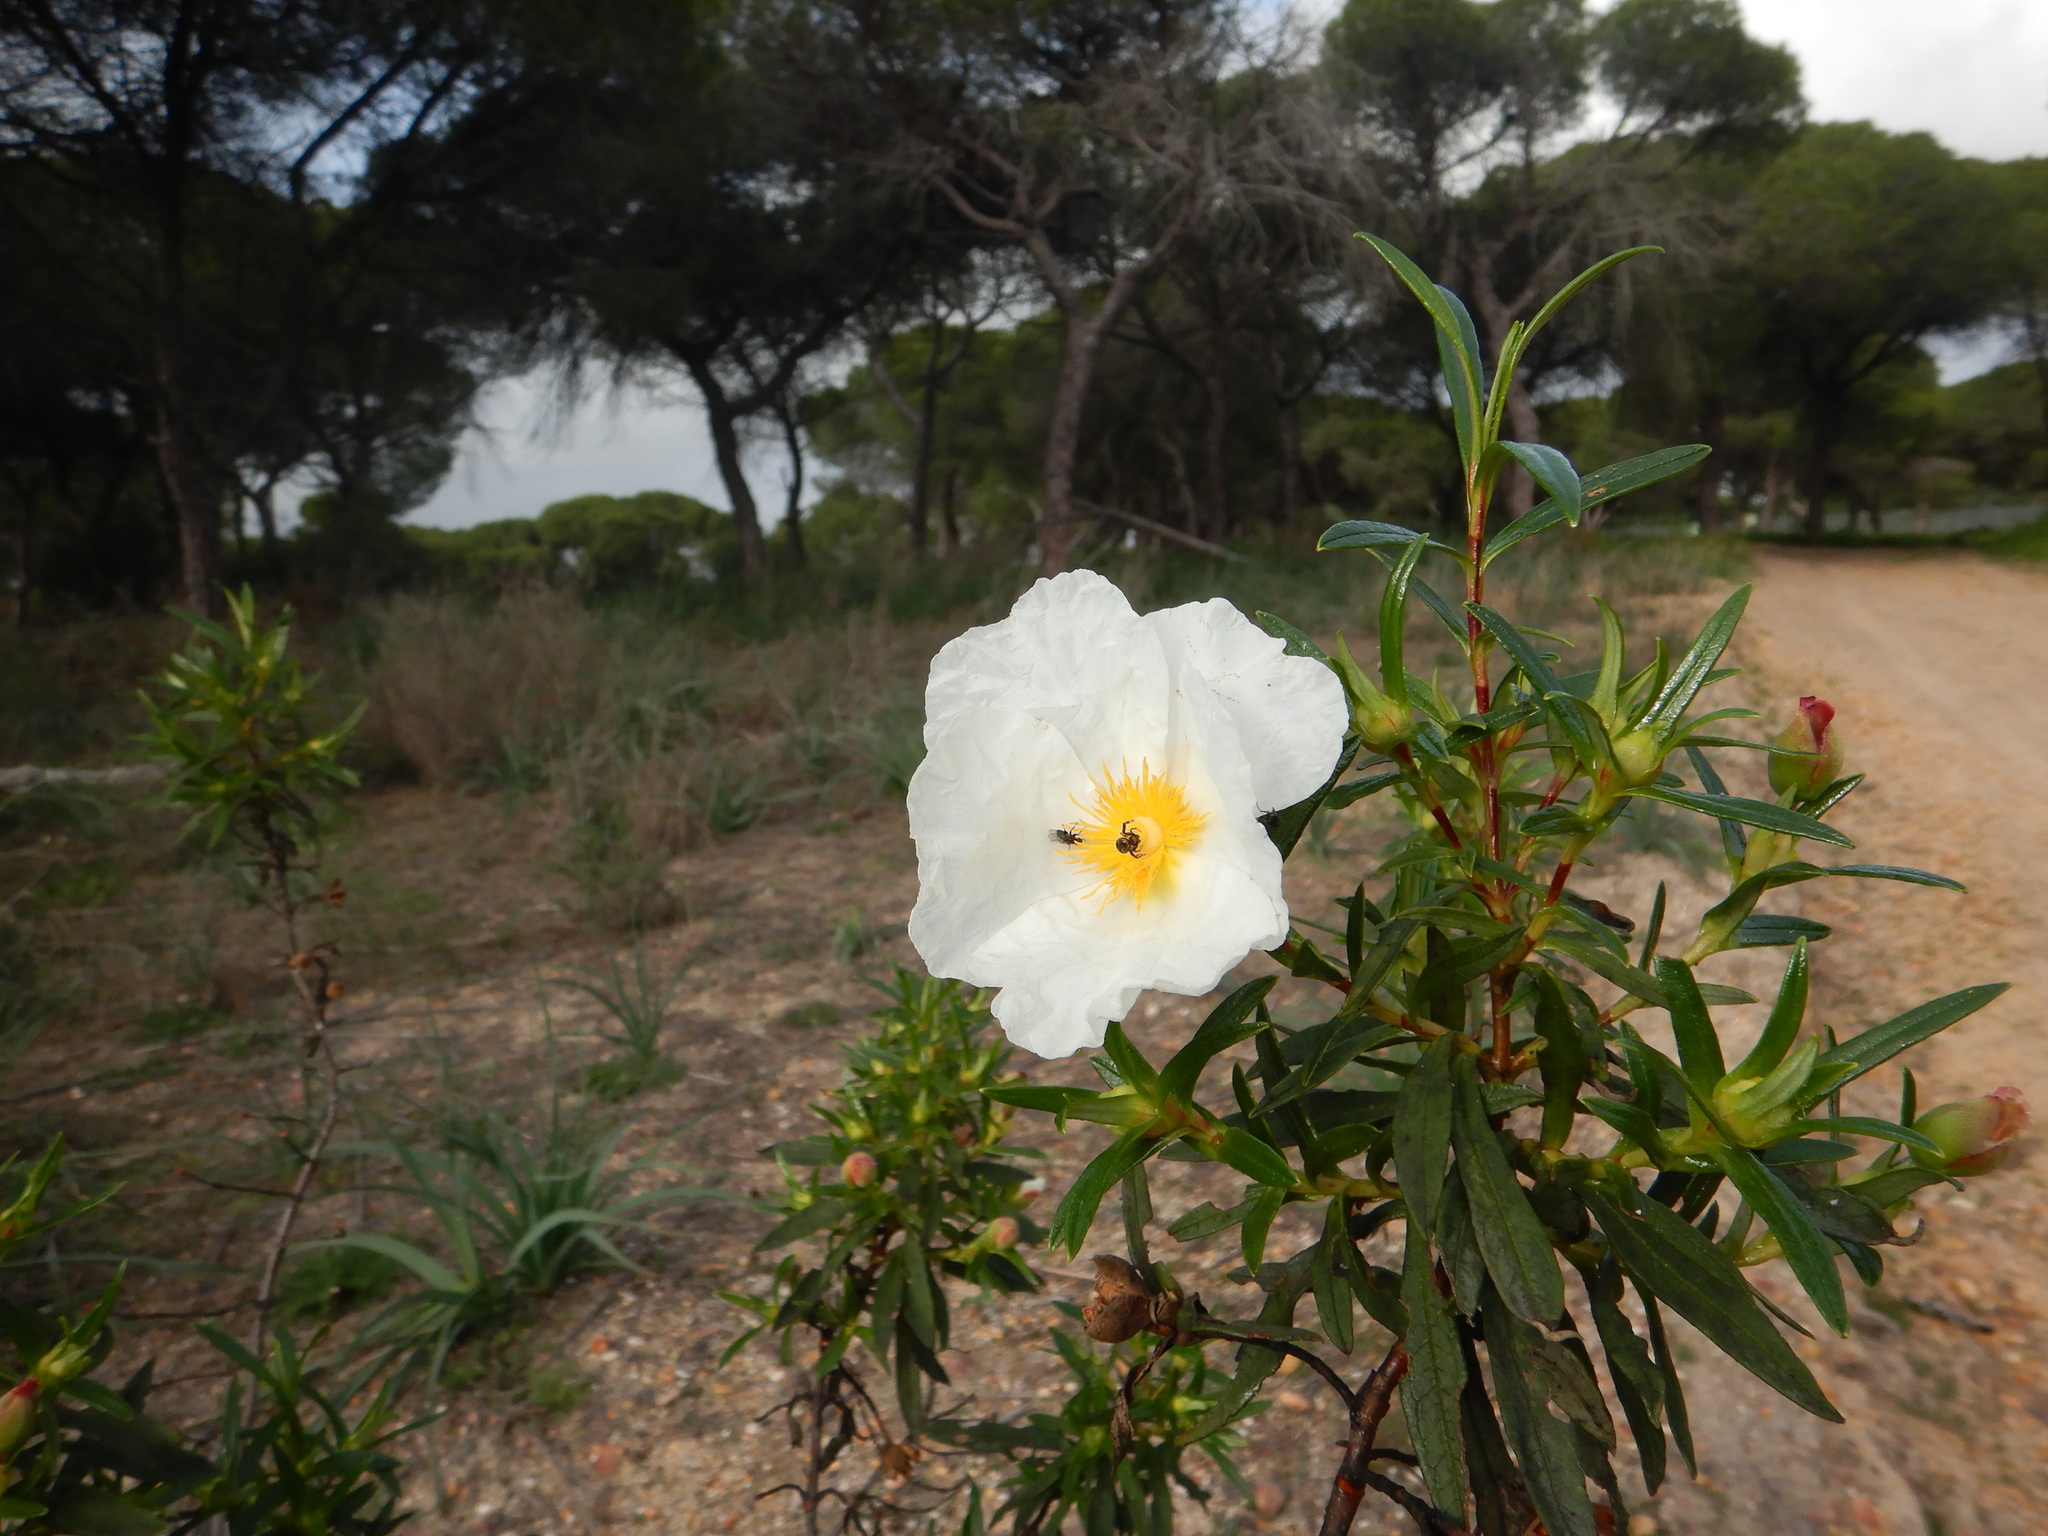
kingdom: Plantae
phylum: Tracheophyta
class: Magnoliopsida
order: Malvales
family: Cistaceae
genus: Cistus
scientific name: Cistus ladanifer
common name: Common gum cistus
